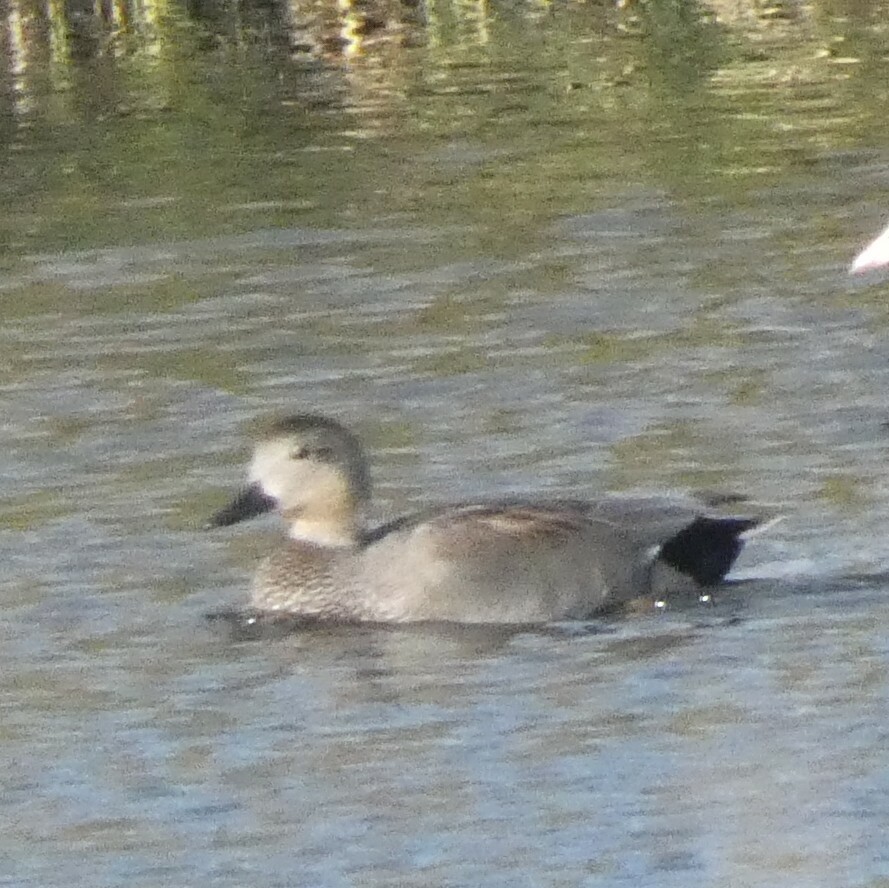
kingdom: Animalia
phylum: Chordata
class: Aves
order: Anseriformes
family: Anatidae
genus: Mareca
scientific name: Mareca strepera
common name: Gadwall
